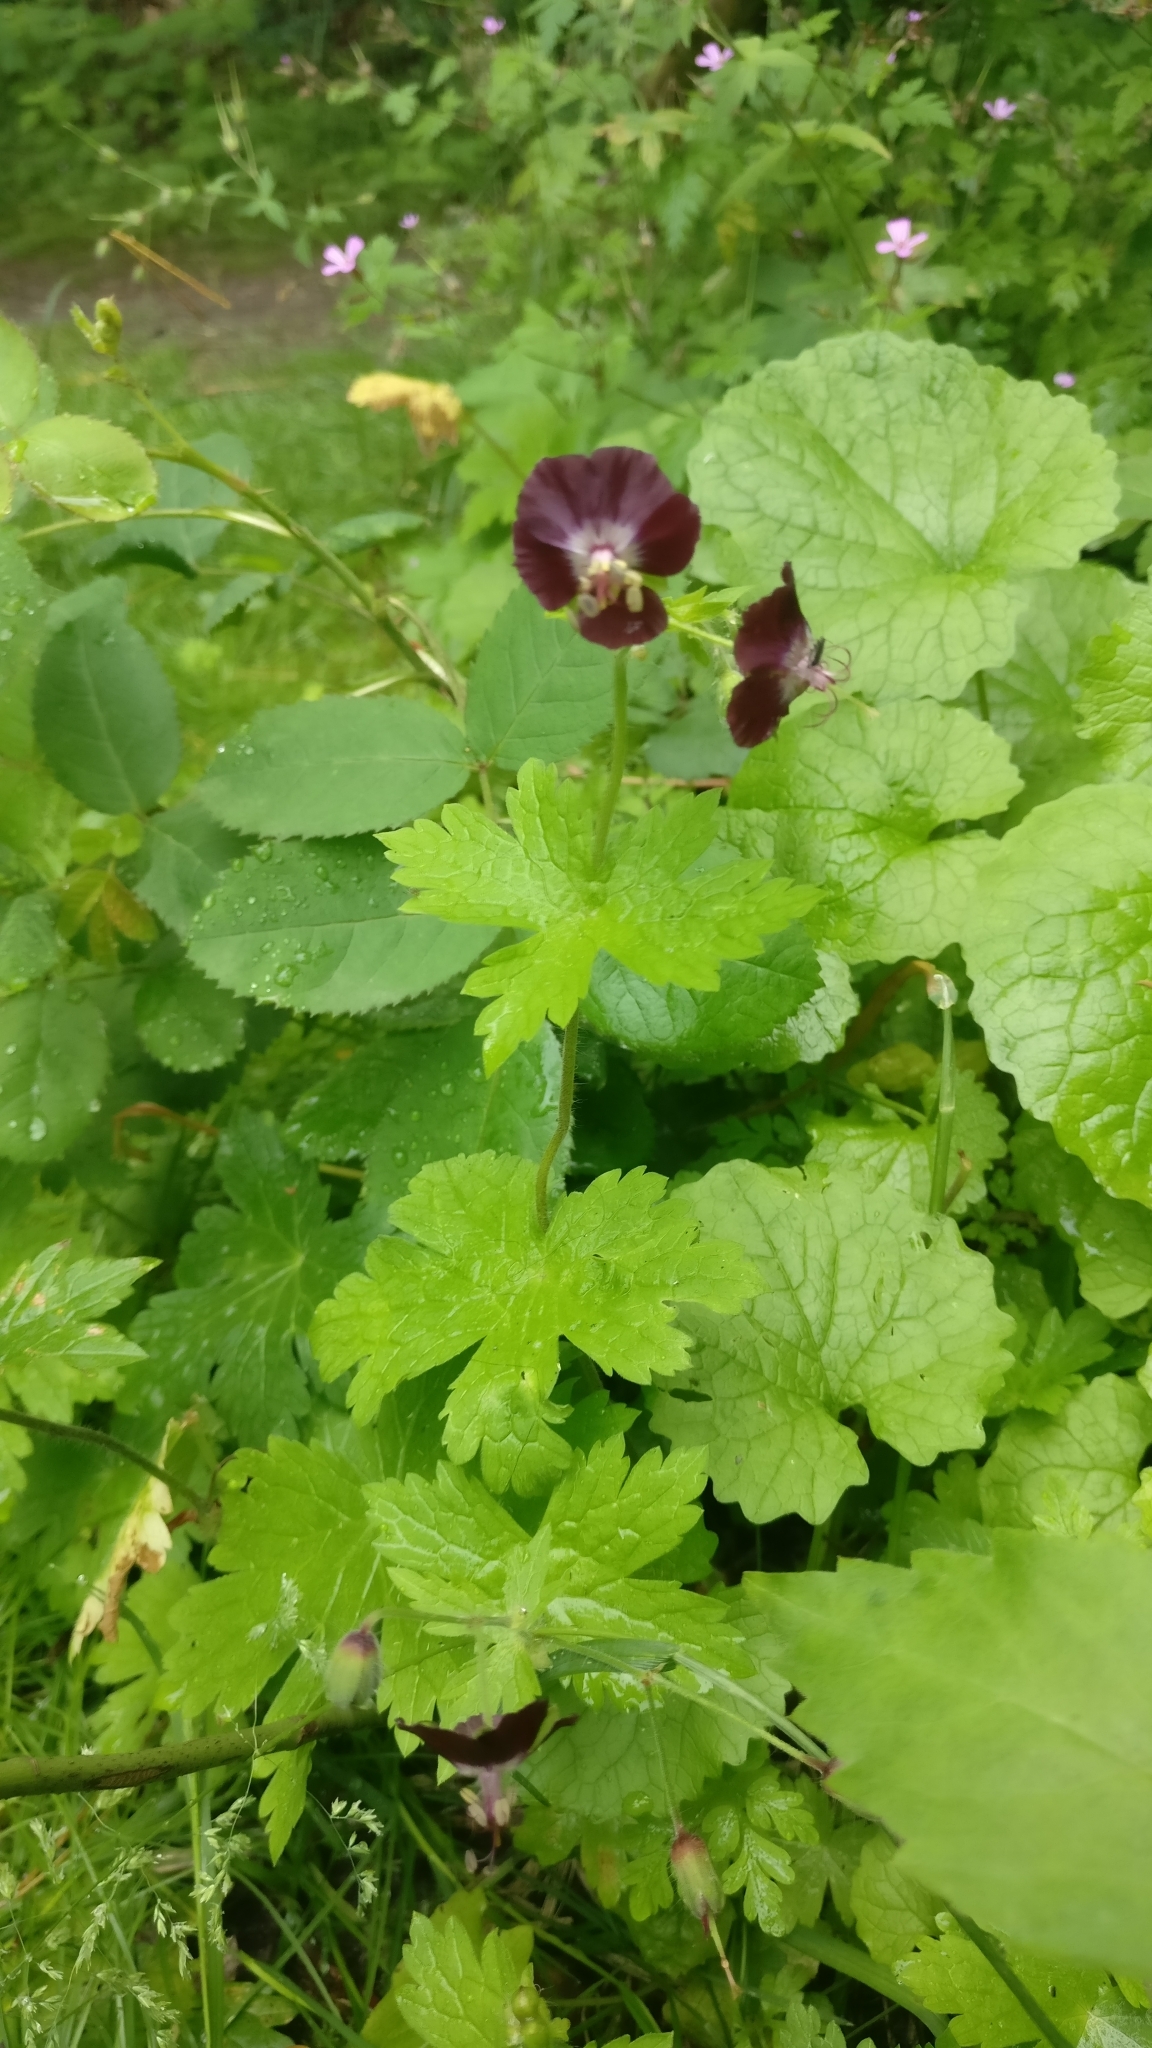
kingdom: Plantae
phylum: Tracheophyta
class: Magnoliopsida
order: Geraniales
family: Geraniaceae
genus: Geranium
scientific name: Geranium phaeum
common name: Dusky crane's-bill
